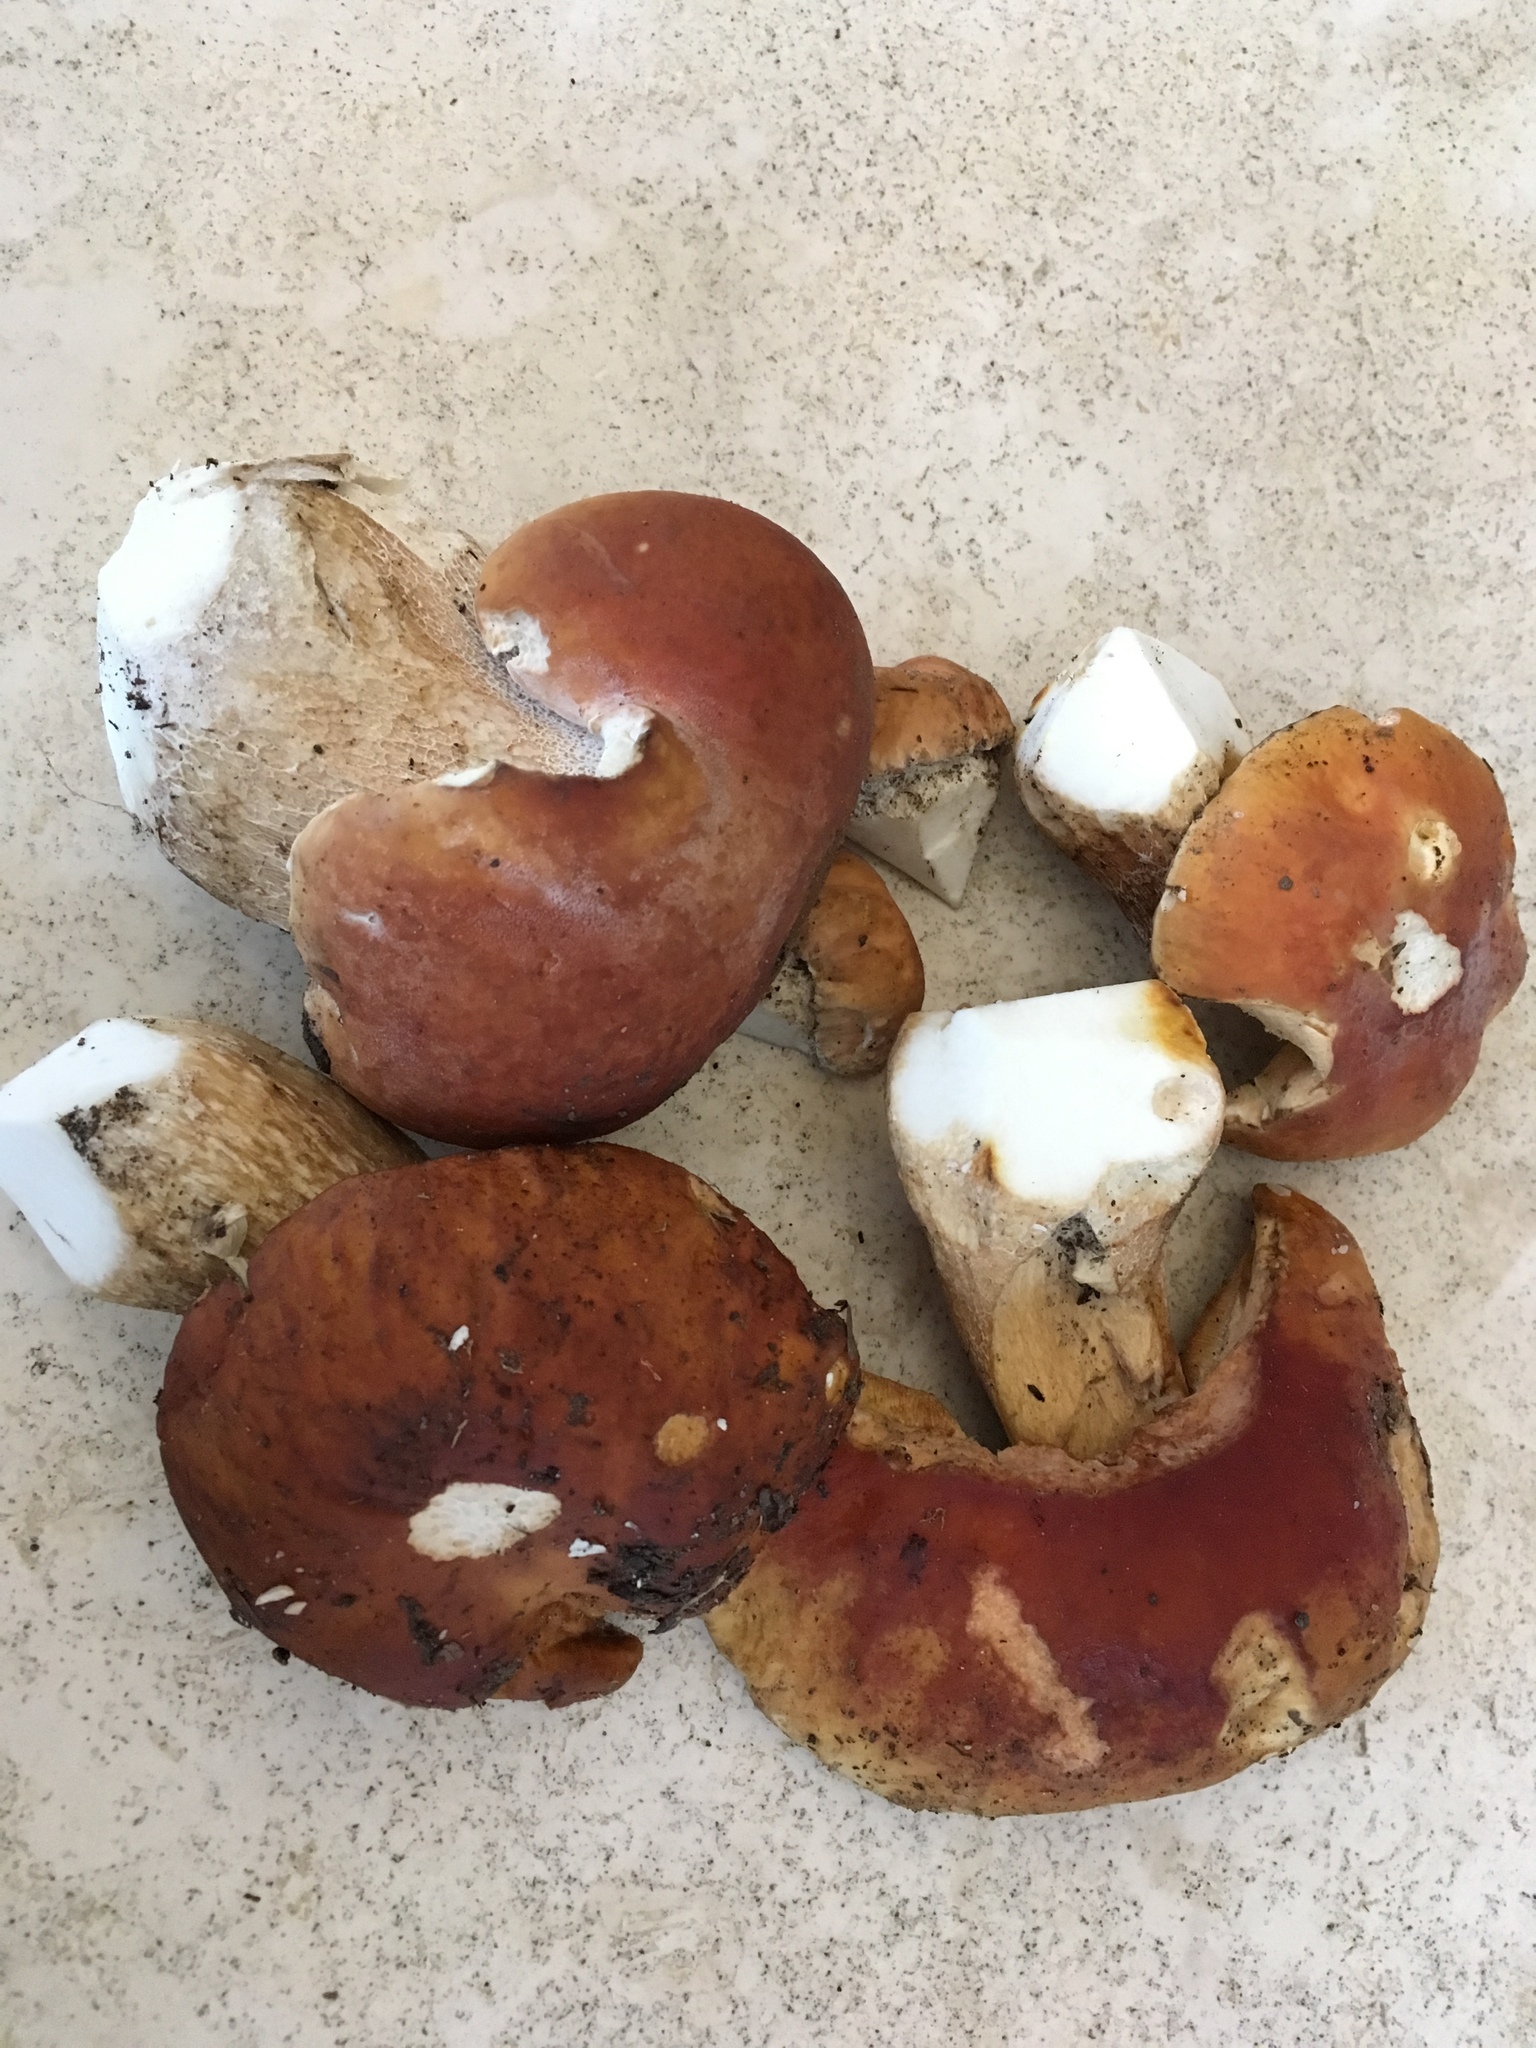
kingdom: Fungi
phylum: Basidiomycota
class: Agaricomycetes
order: Boletales
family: Boletaceae
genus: Boletus
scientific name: Boletus edulis
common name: Cep
